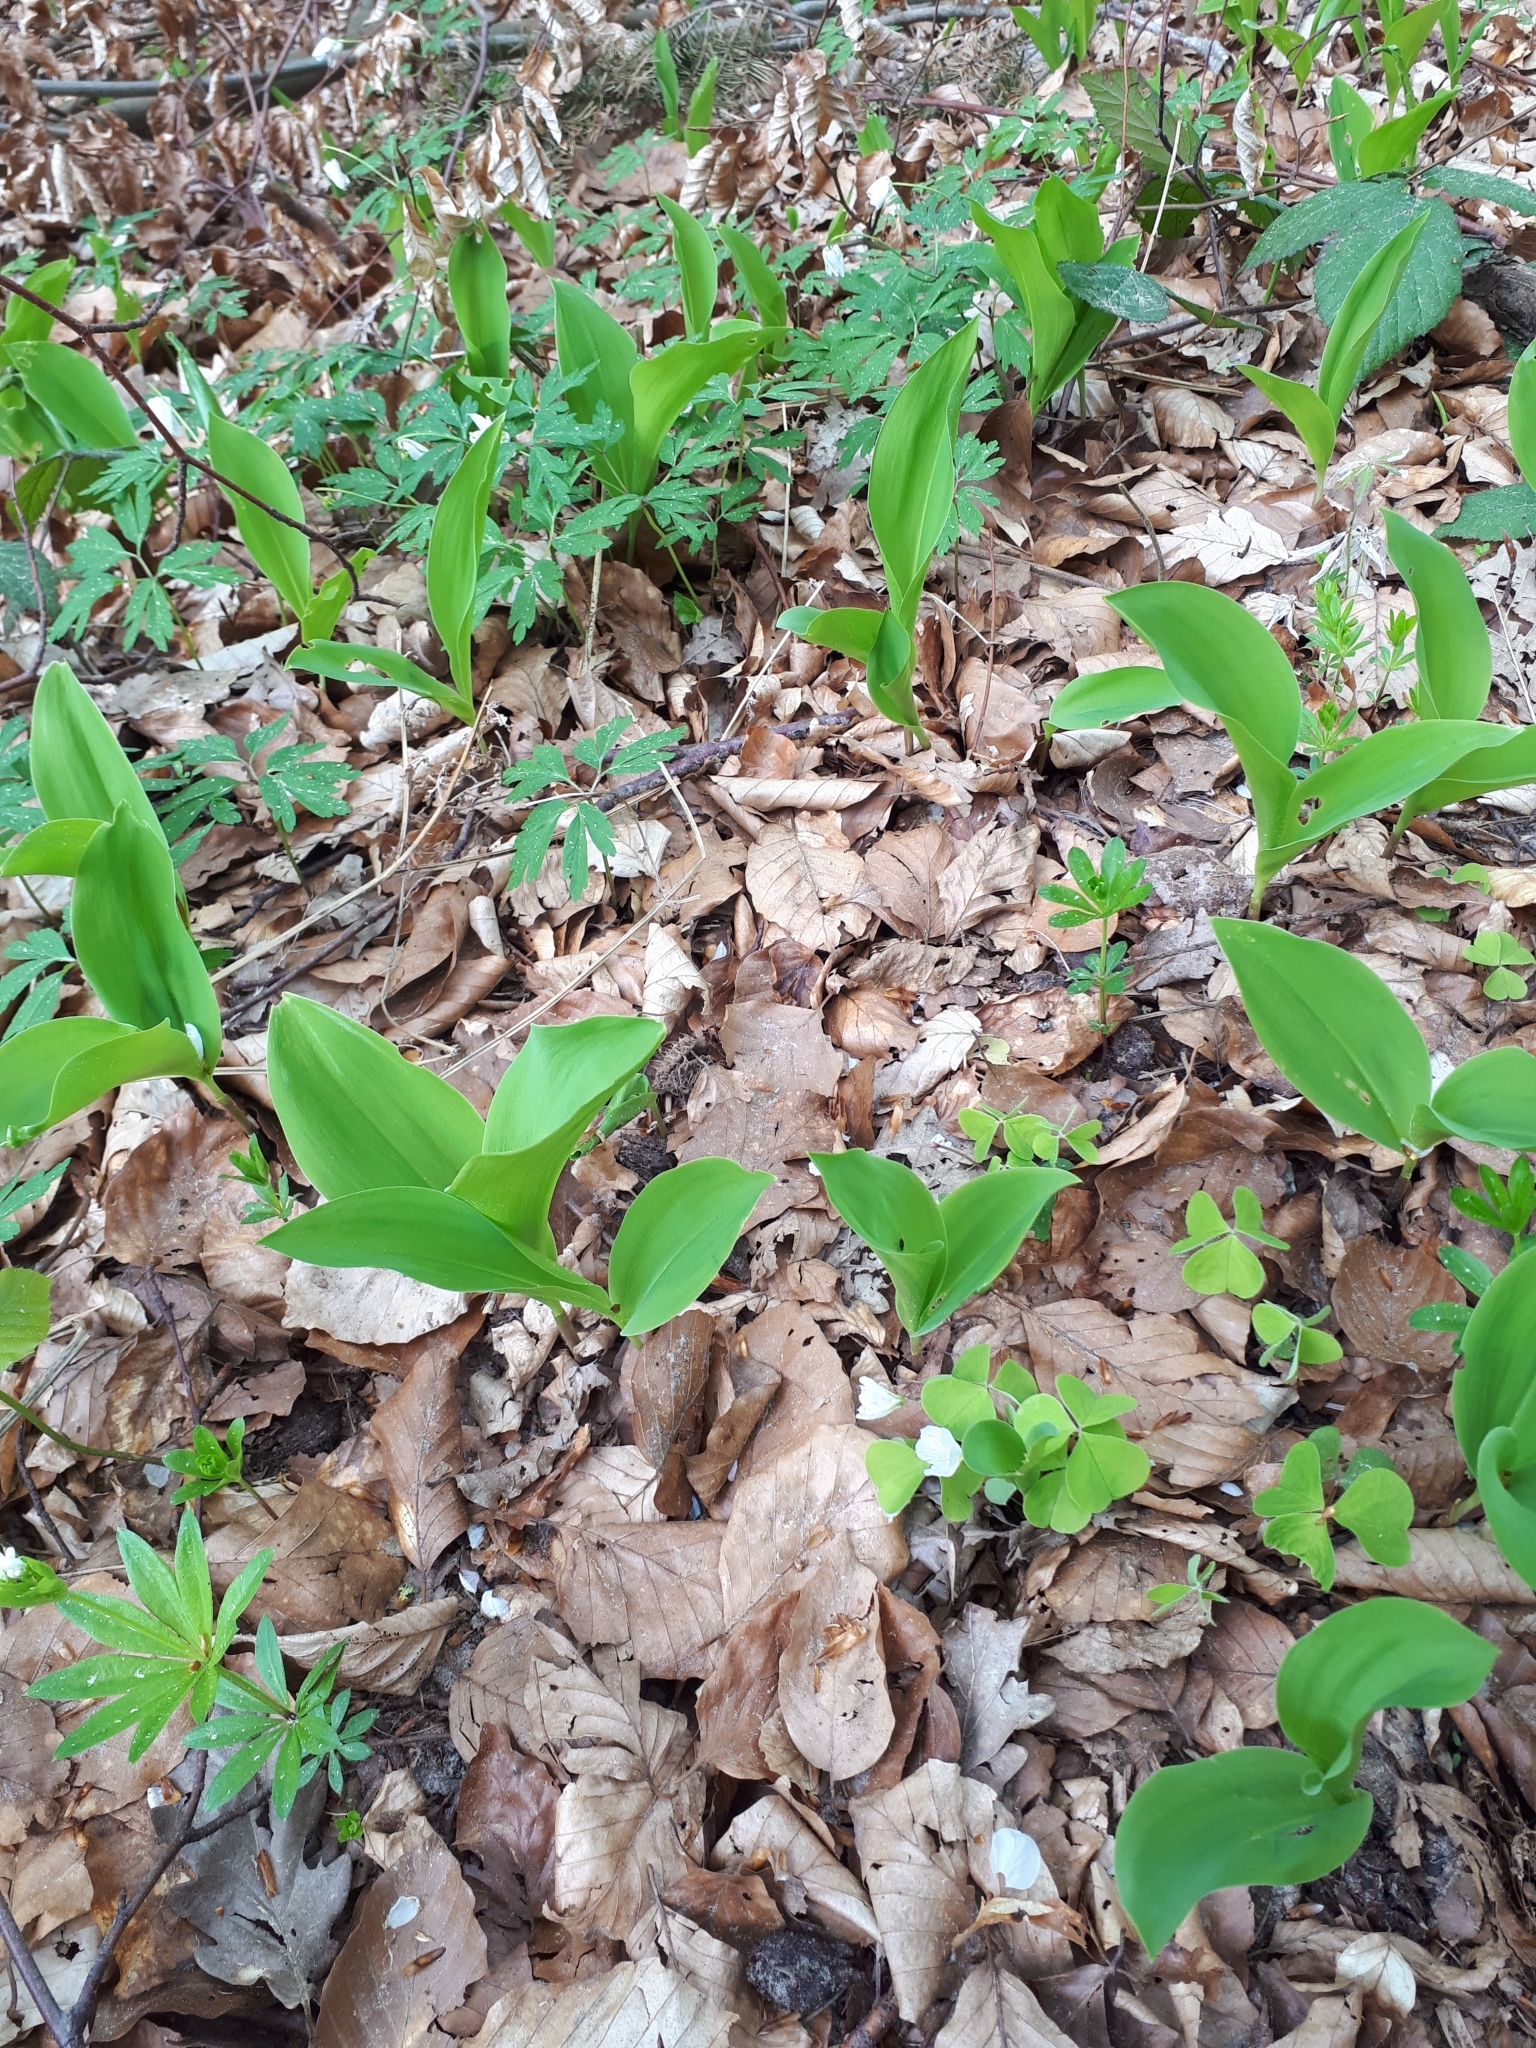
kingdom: Plantae
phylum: Tracheophyta
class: Liliopsida
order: Asparagales
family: Asparagaceae
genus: Convallaria
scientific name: Convallaria majalis
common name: Lily-of-the-valley
